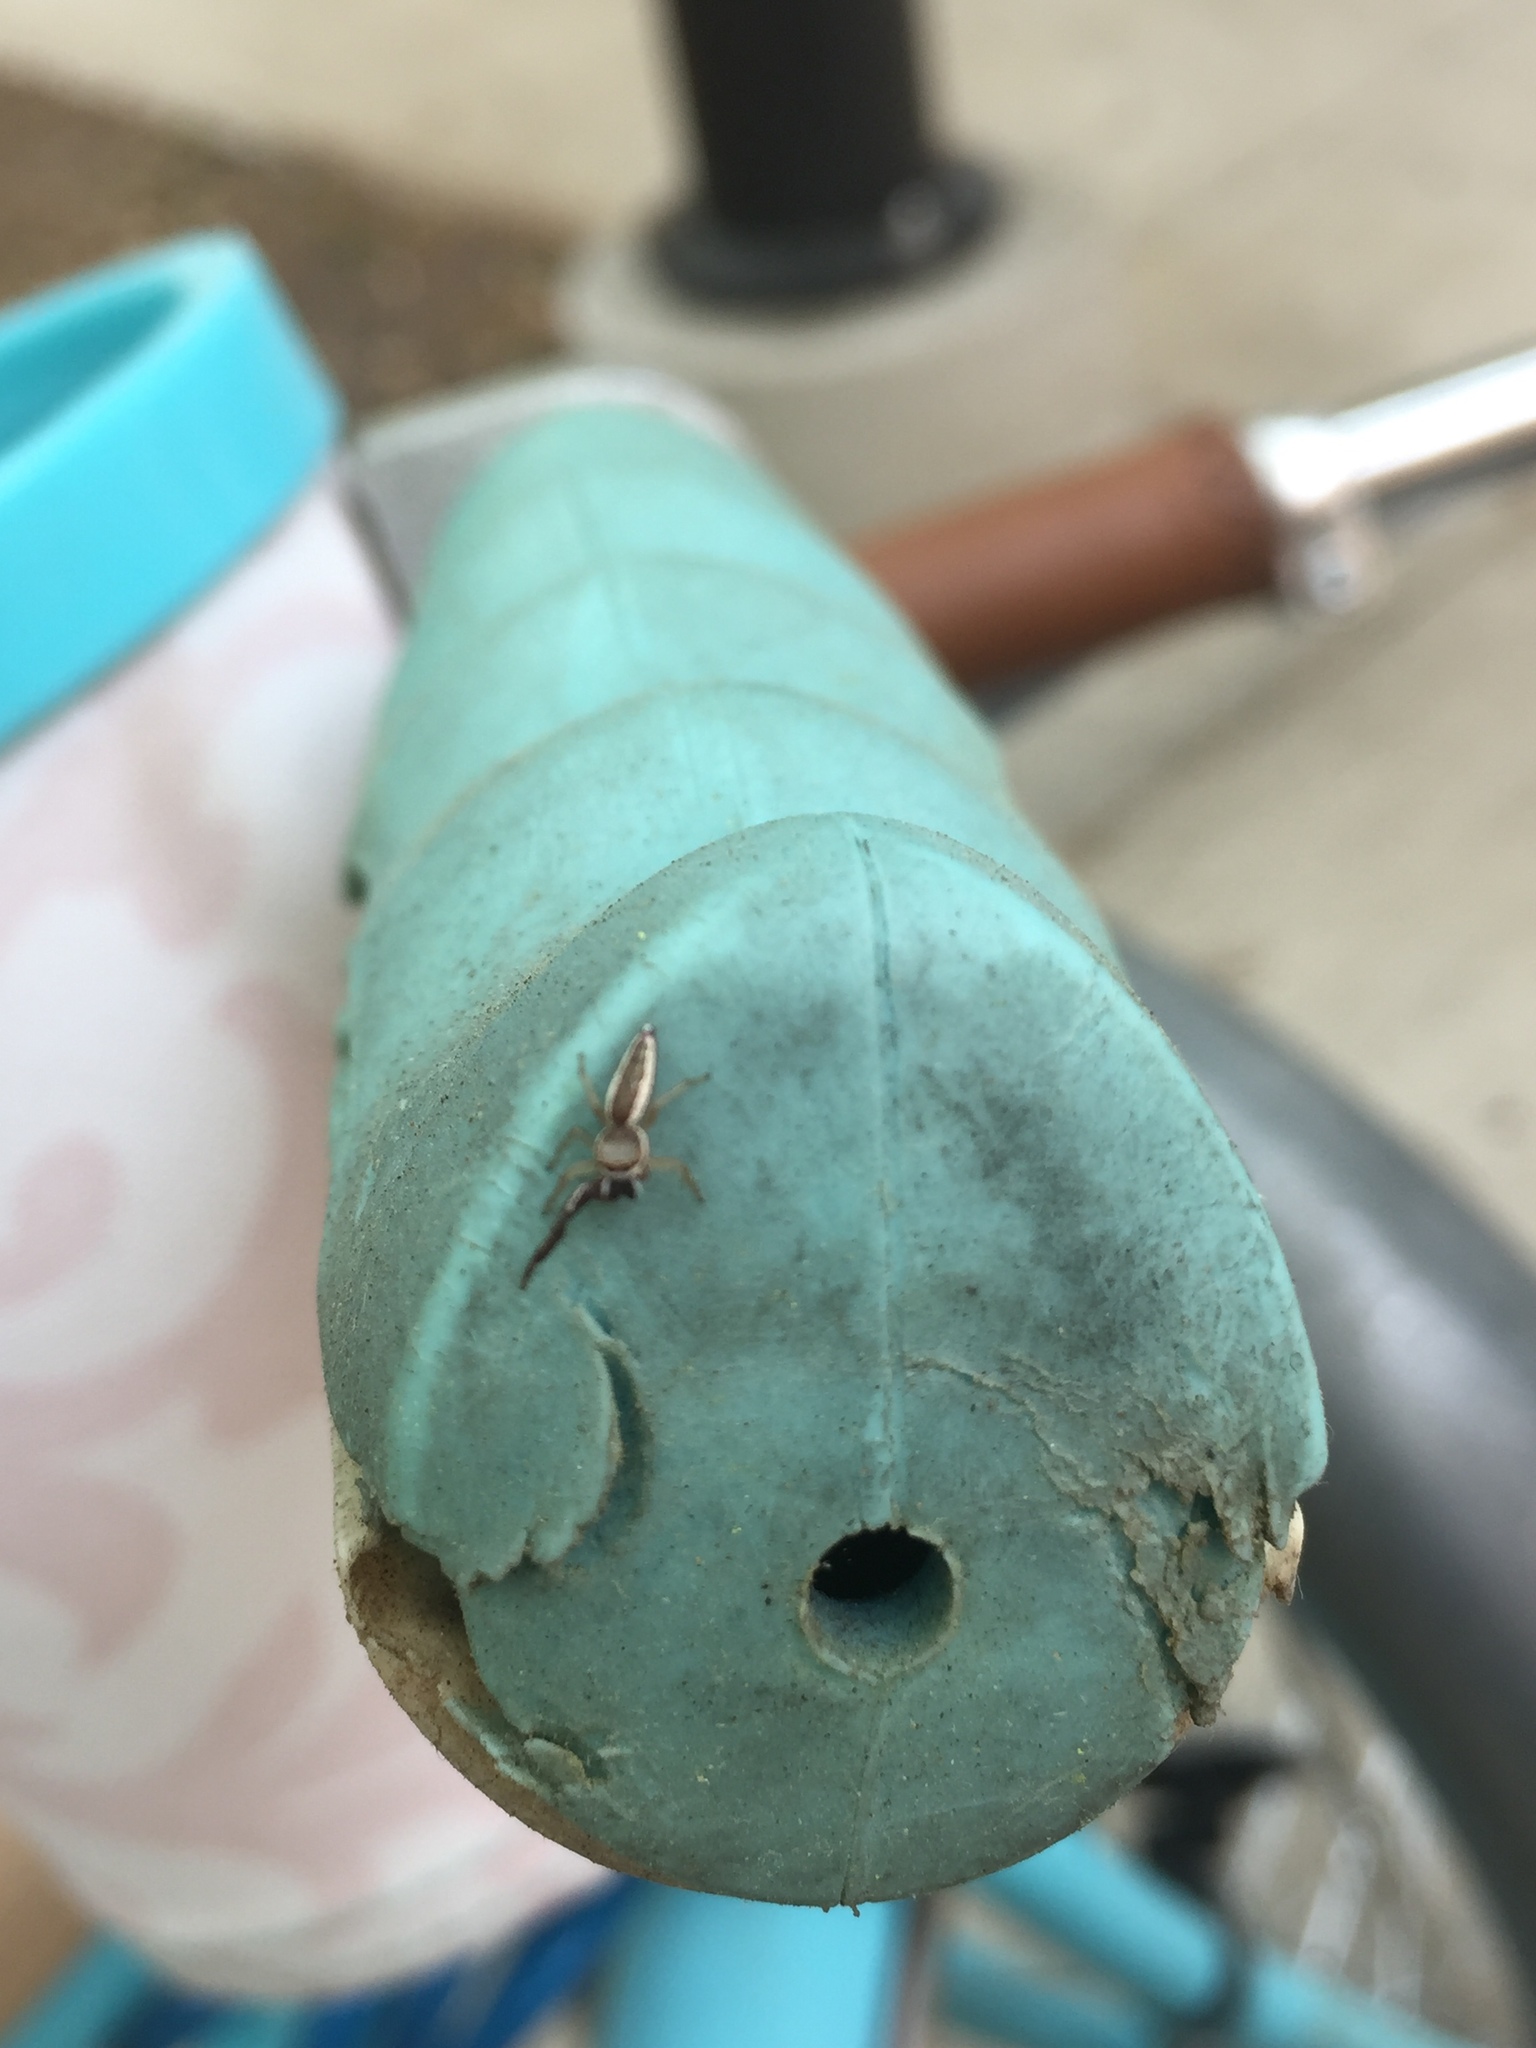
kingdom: Animalia
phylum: Arthropoda
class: Arachnida
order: Araneae
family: Salticidae
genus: Hentzia
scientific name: Hentzia palmarum
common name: Common hentz jumping spider
